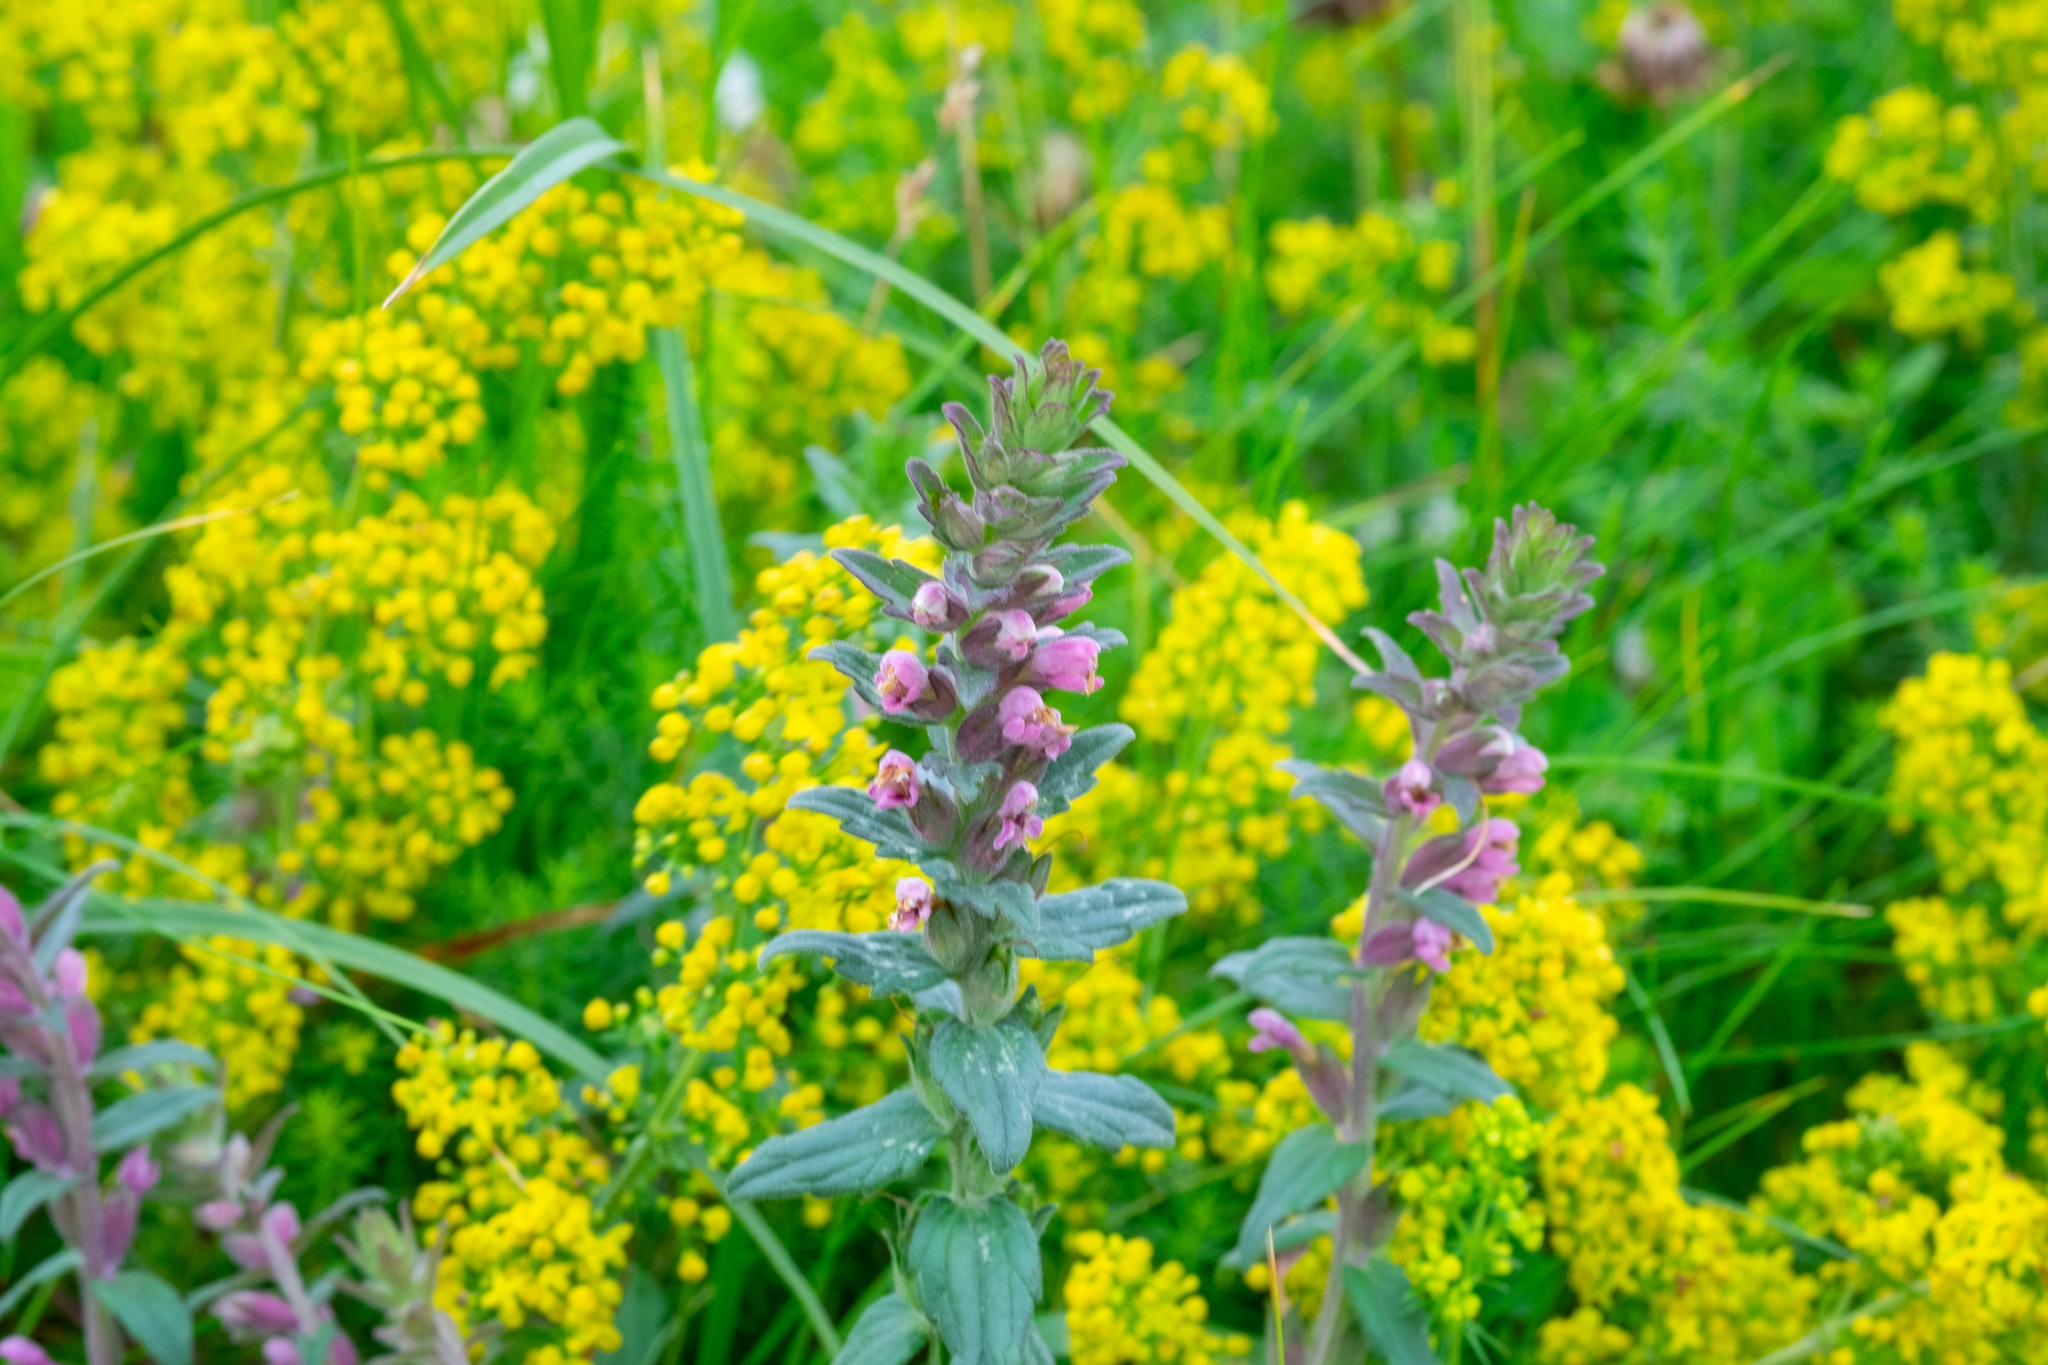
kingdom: Plantae
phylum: Tracheophyta
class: Magnoliopsida
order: Lamiales
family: Orobanchaceae
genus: Odontites
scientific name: Odontites vernus
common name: Red bartsia
